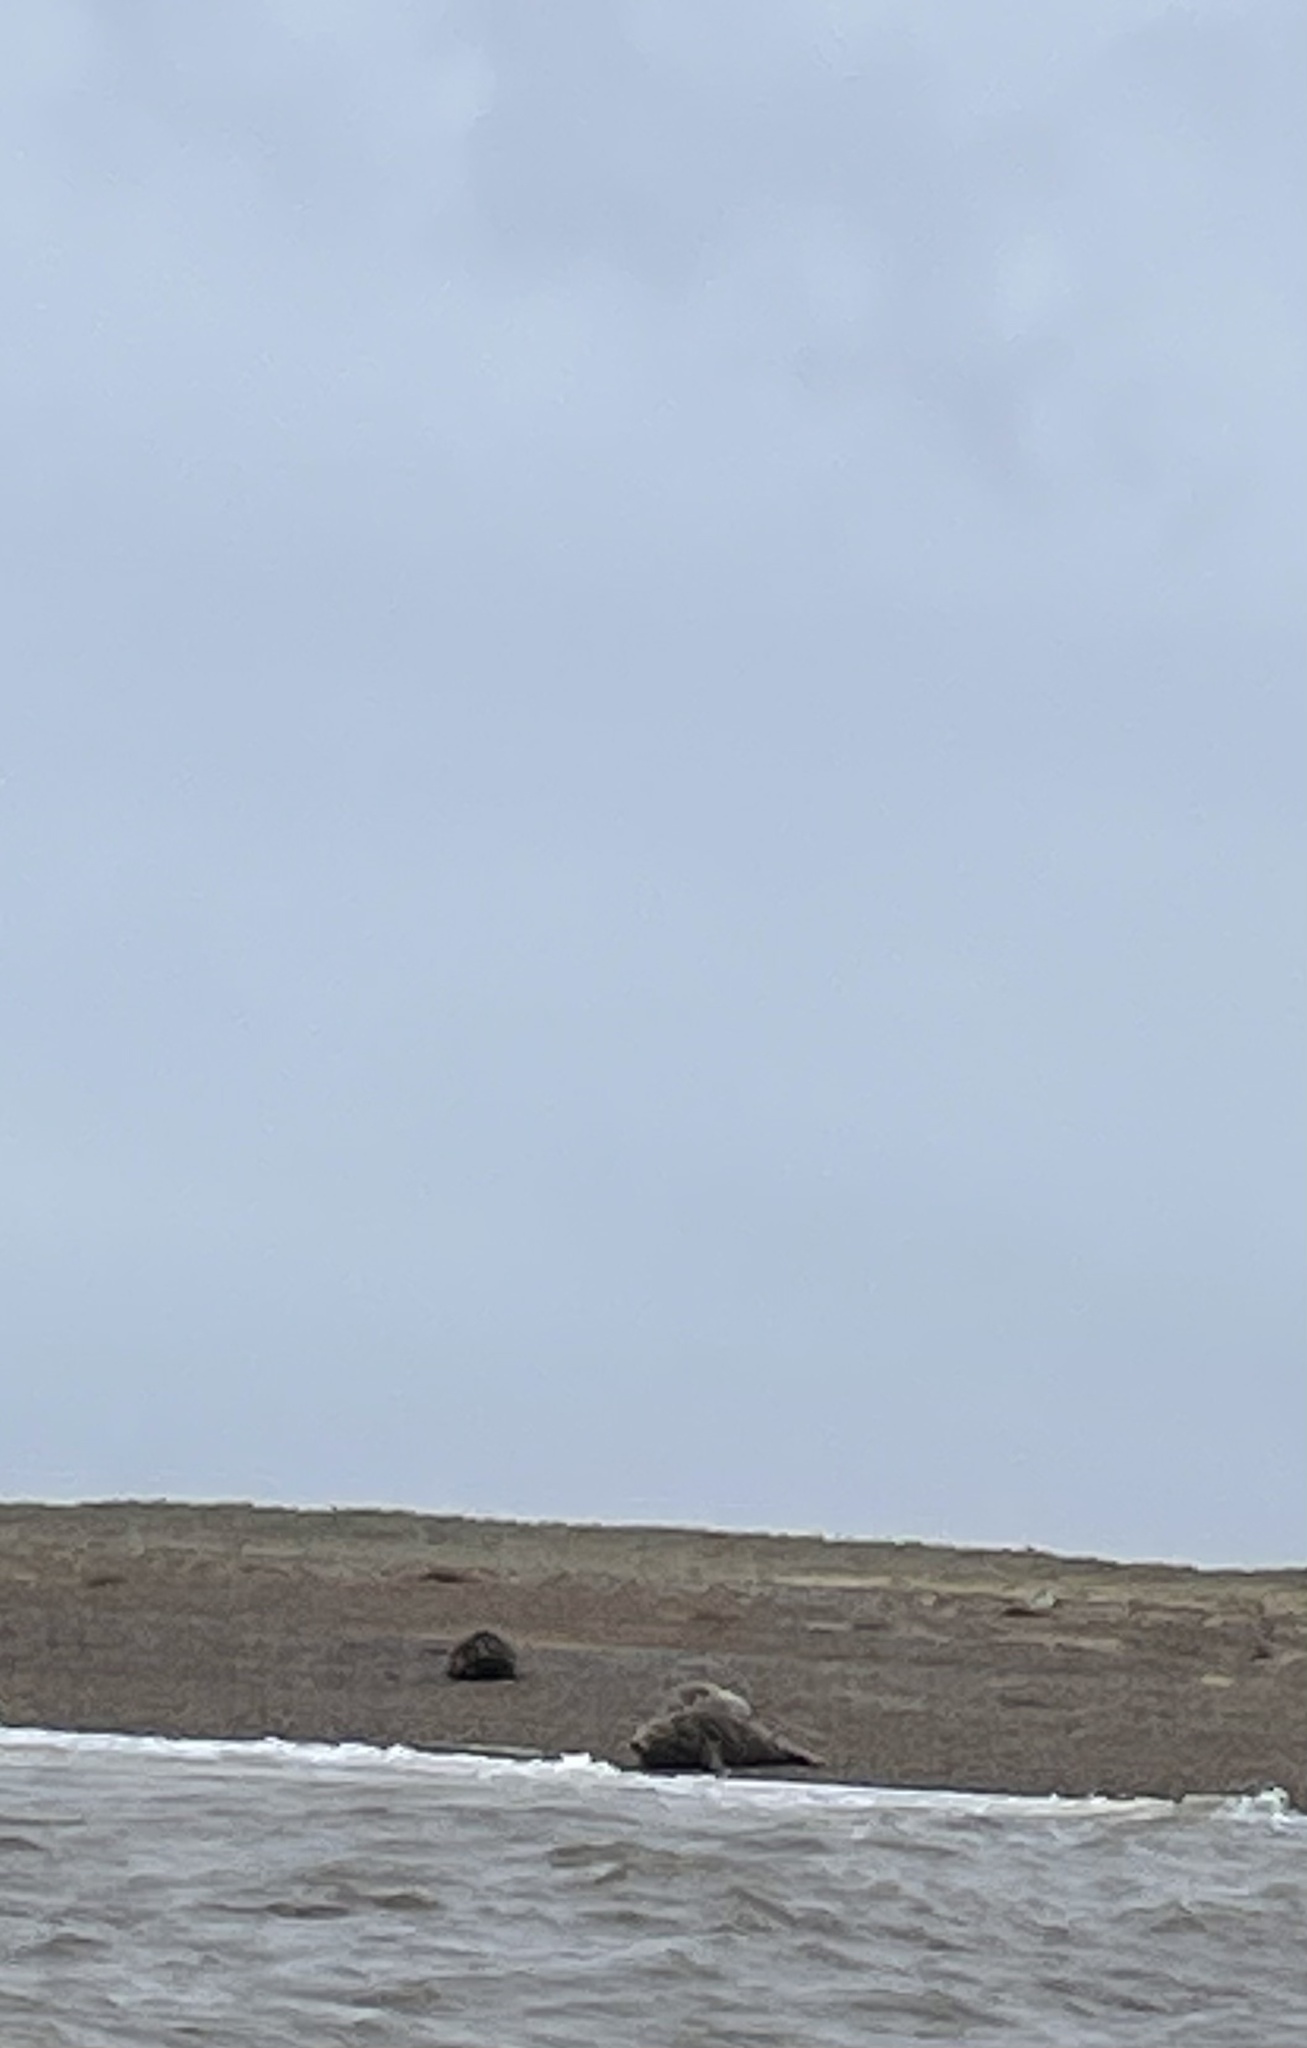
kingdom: Animalia
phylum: Chordata
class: Mammalia
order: Carnivora
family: Phocidae
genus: Halichoerus
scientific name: Halichoerus grypus
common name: Grey seal
